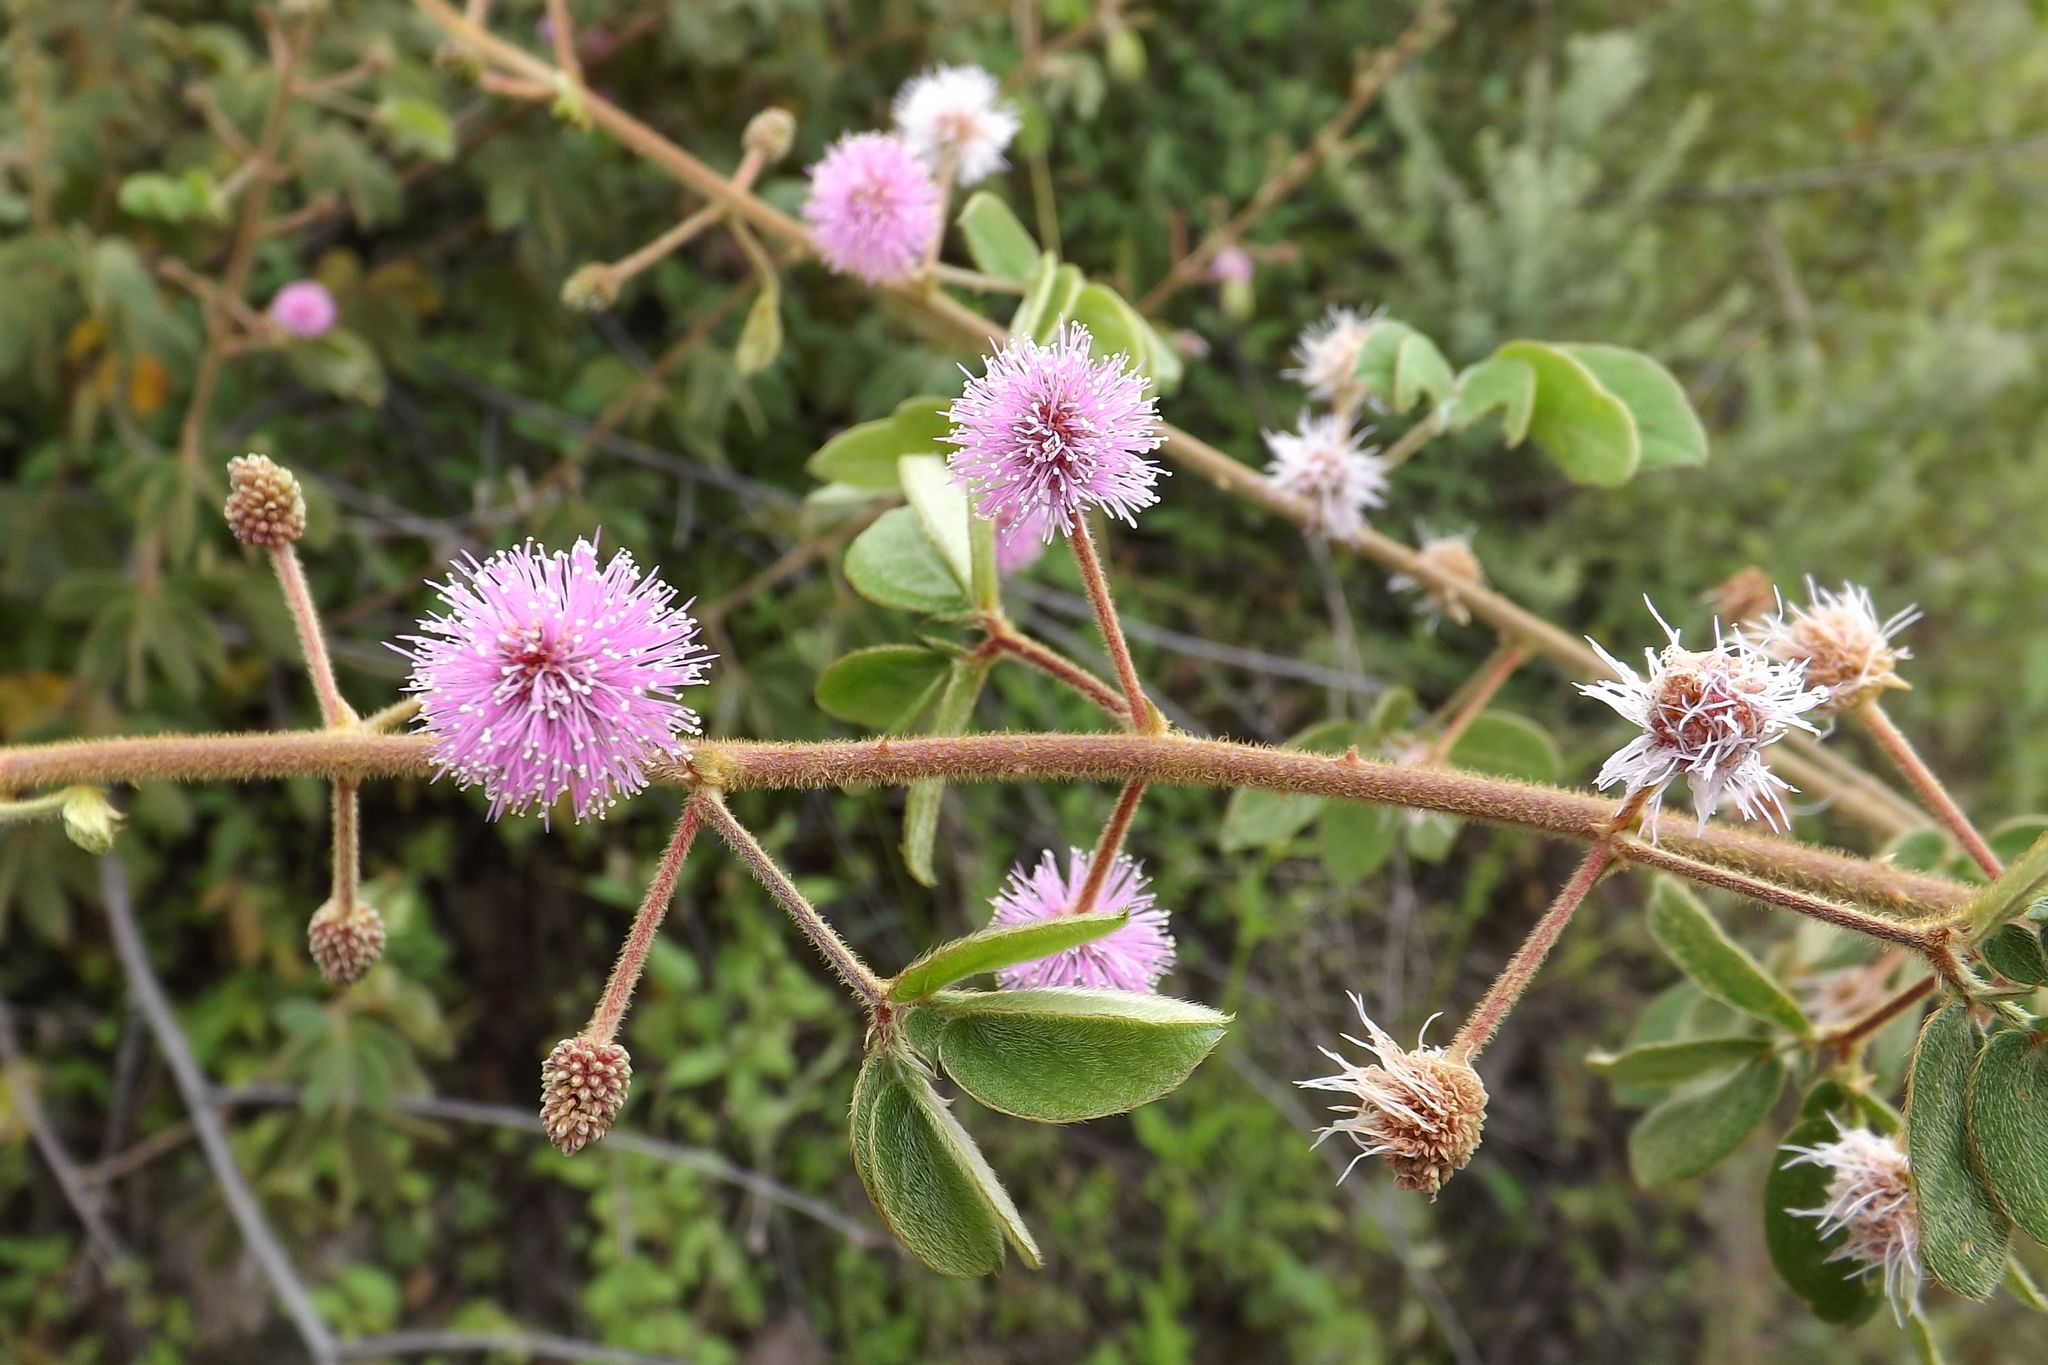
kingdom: Plantae
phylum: Tracheophyta
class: Magnoliopsida
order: Fabales
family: Fabaceae
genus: Mimosa
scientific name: Mimosa albida
